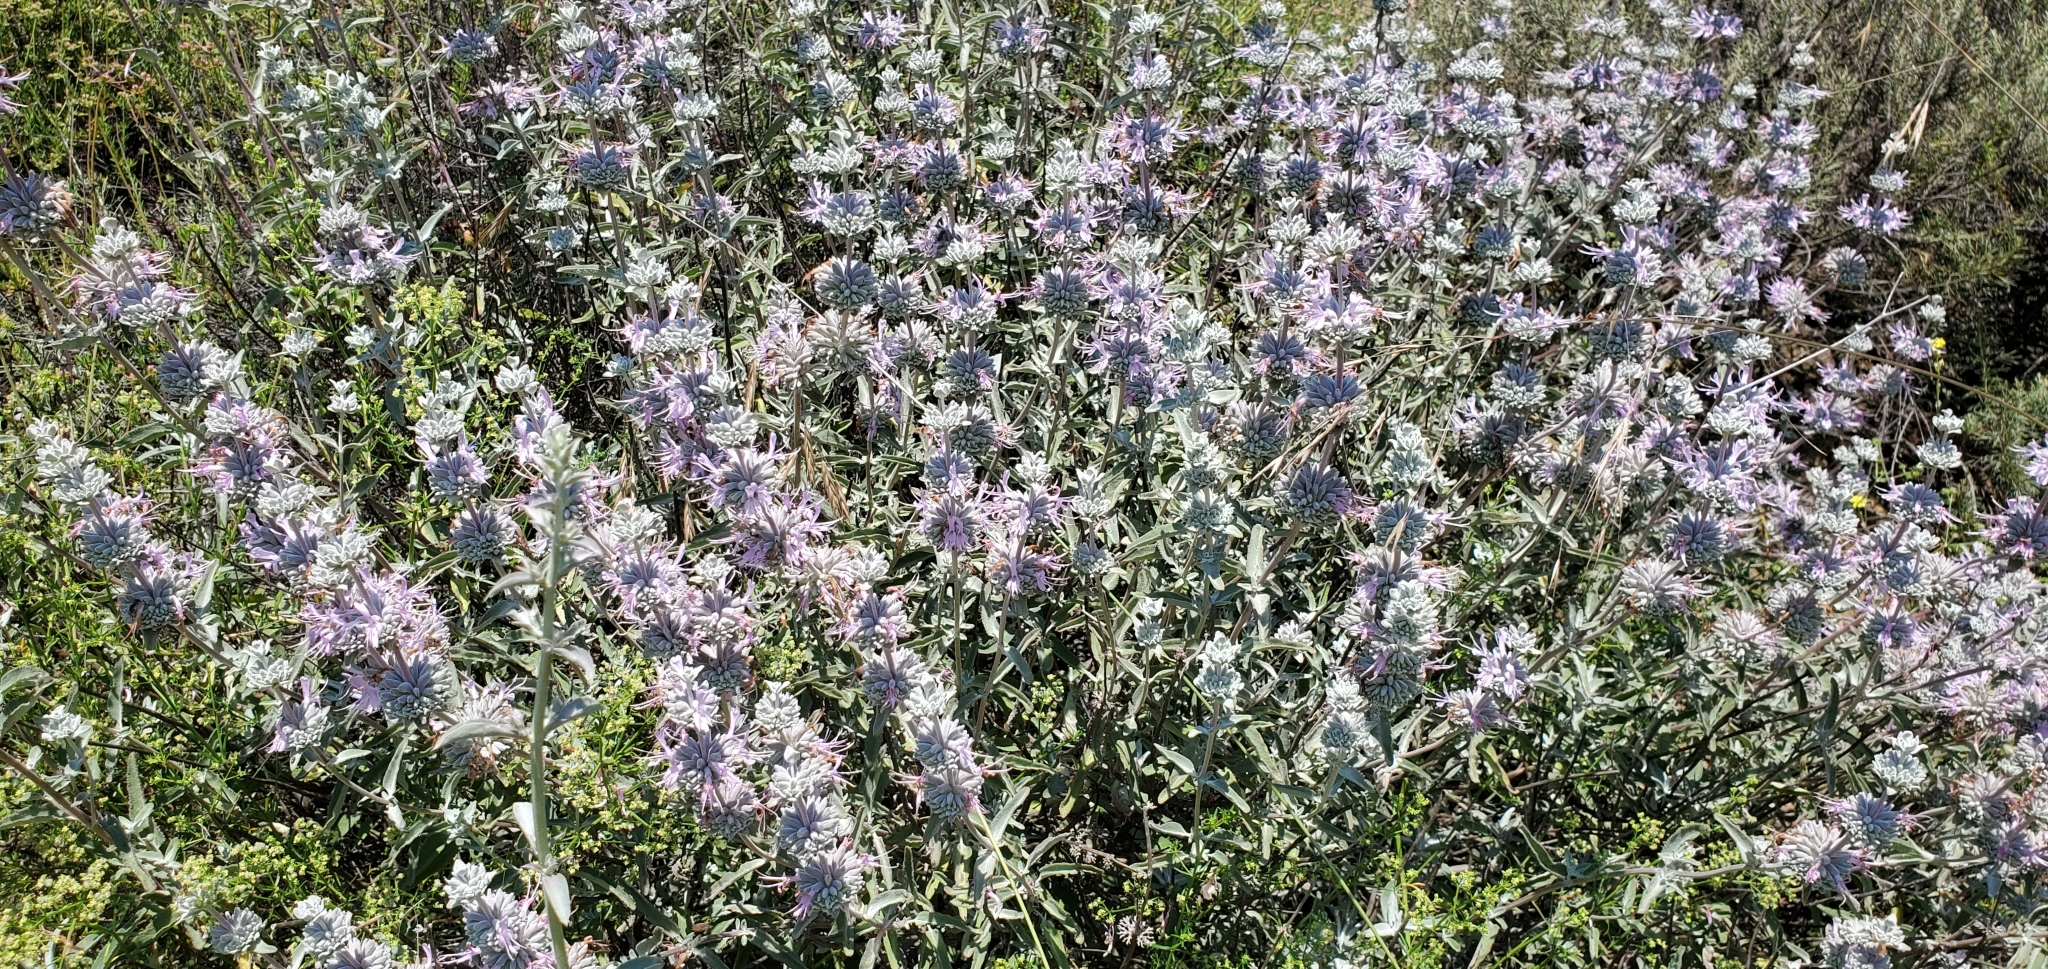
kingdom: Plantae
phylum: Tracheophyta
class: Magnoliopsida
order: Lamiales
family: Lamiaceae
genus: Salvia
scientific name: Salvia leucophylla
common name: Purple sage
